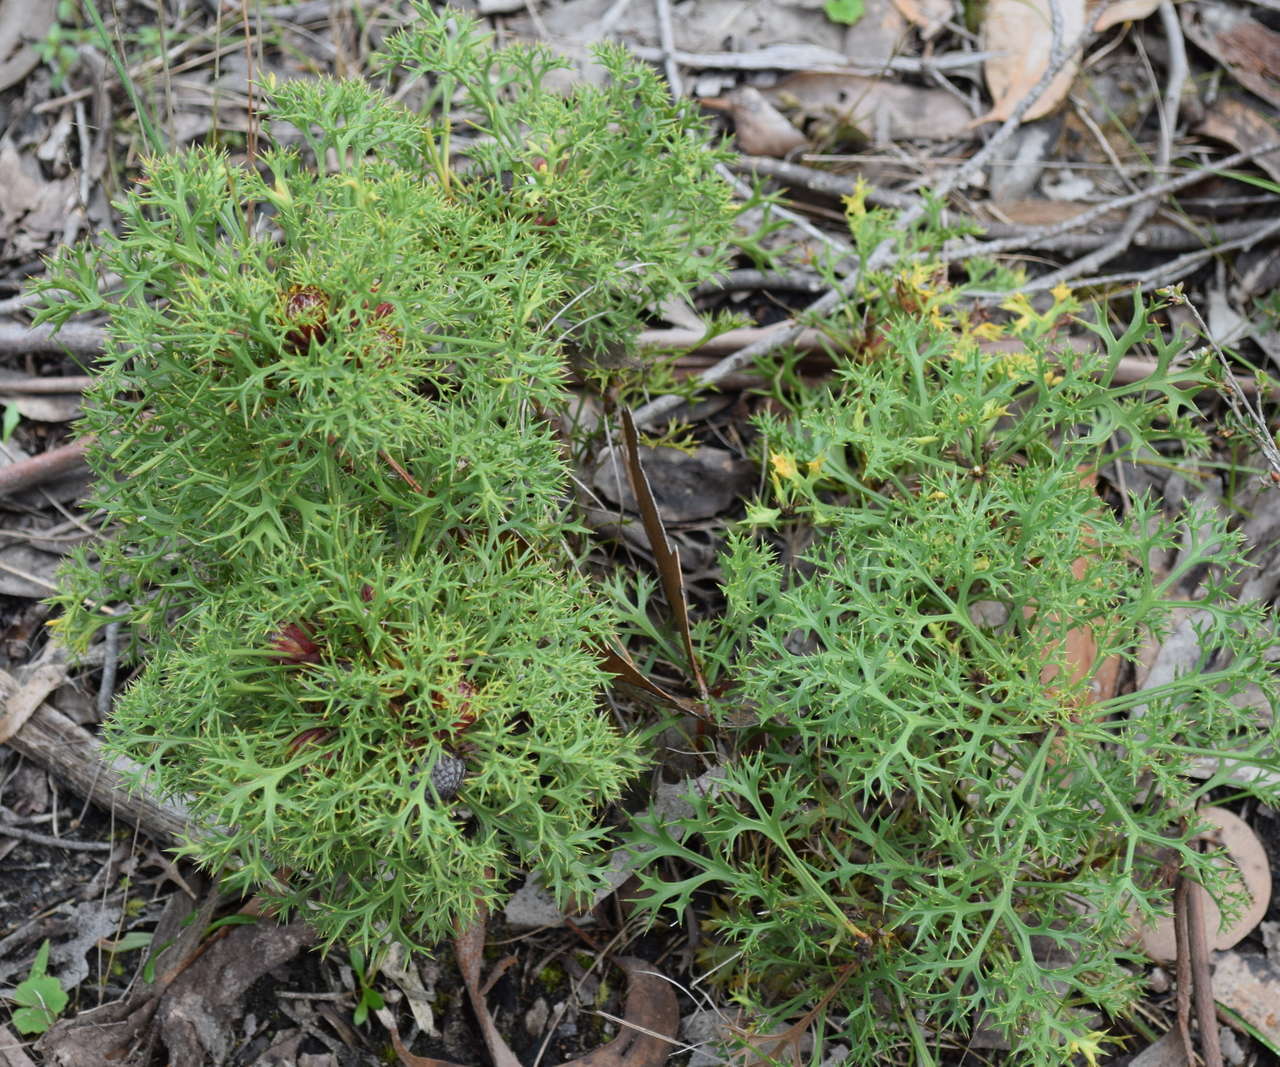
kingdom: Plantae
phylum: Tracheophyta
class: Magnoliopsida
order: Proteales
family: Proteaceae
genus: Isopogon
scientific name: Isopogon ceratophyllus
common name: Horny cone-bush
